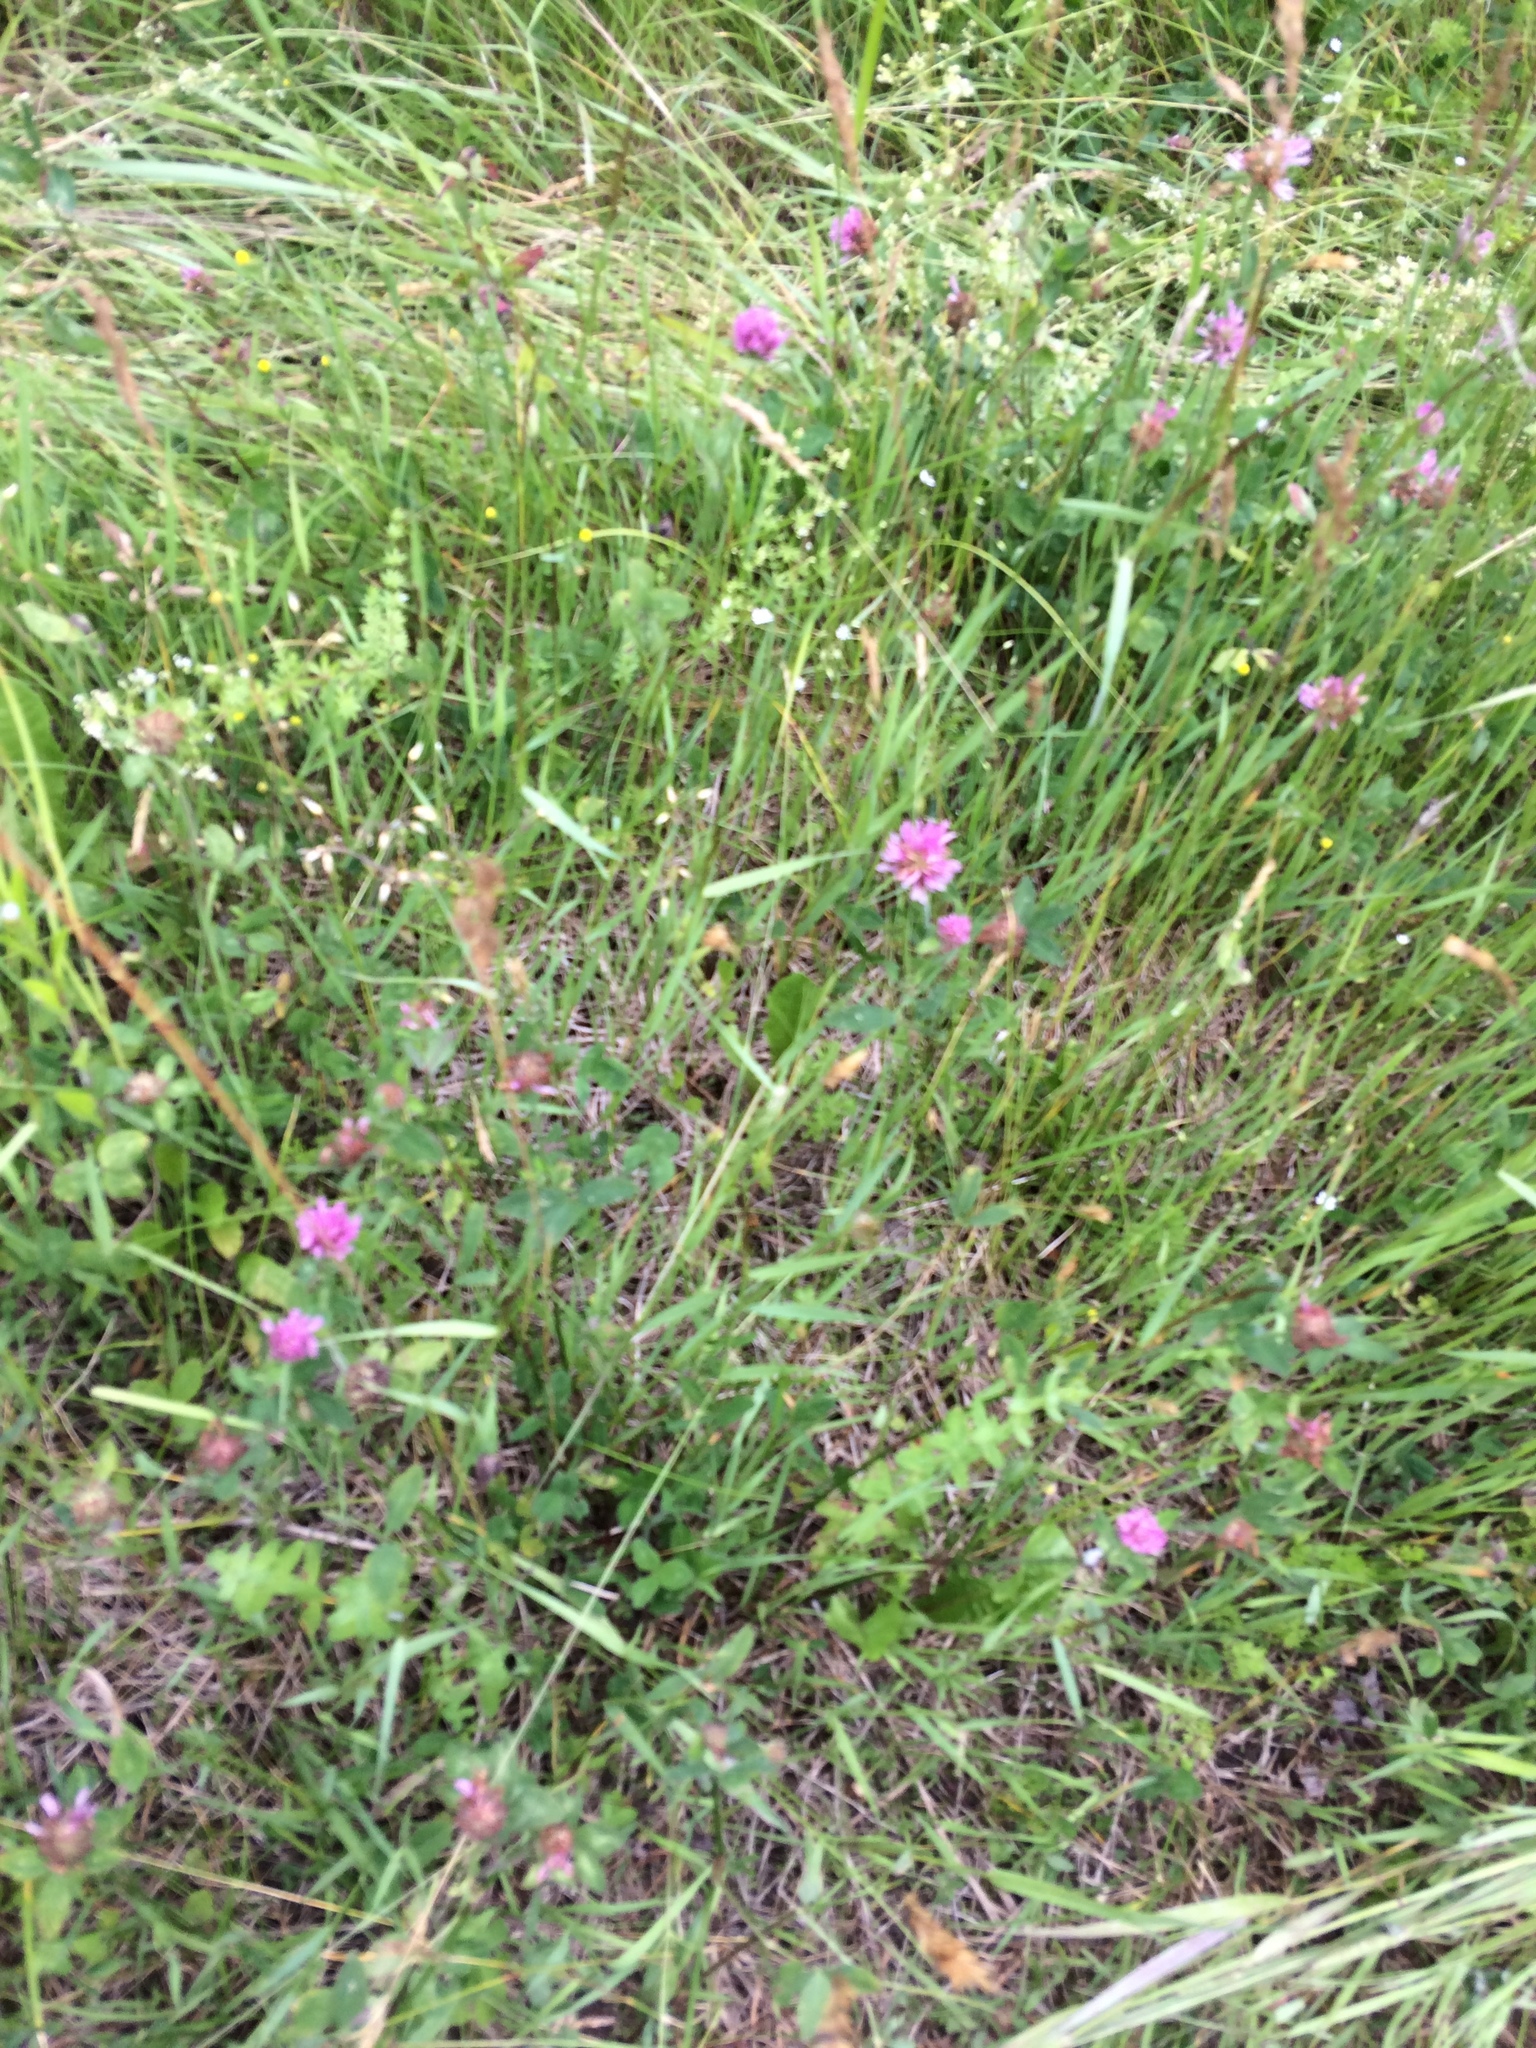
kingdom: Plantae
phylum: Tracheophyta
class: Magnoliopsida
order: Fabales
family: Fabaceae
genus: Trifolium
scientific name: Trifolium pratense
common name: Red clover
